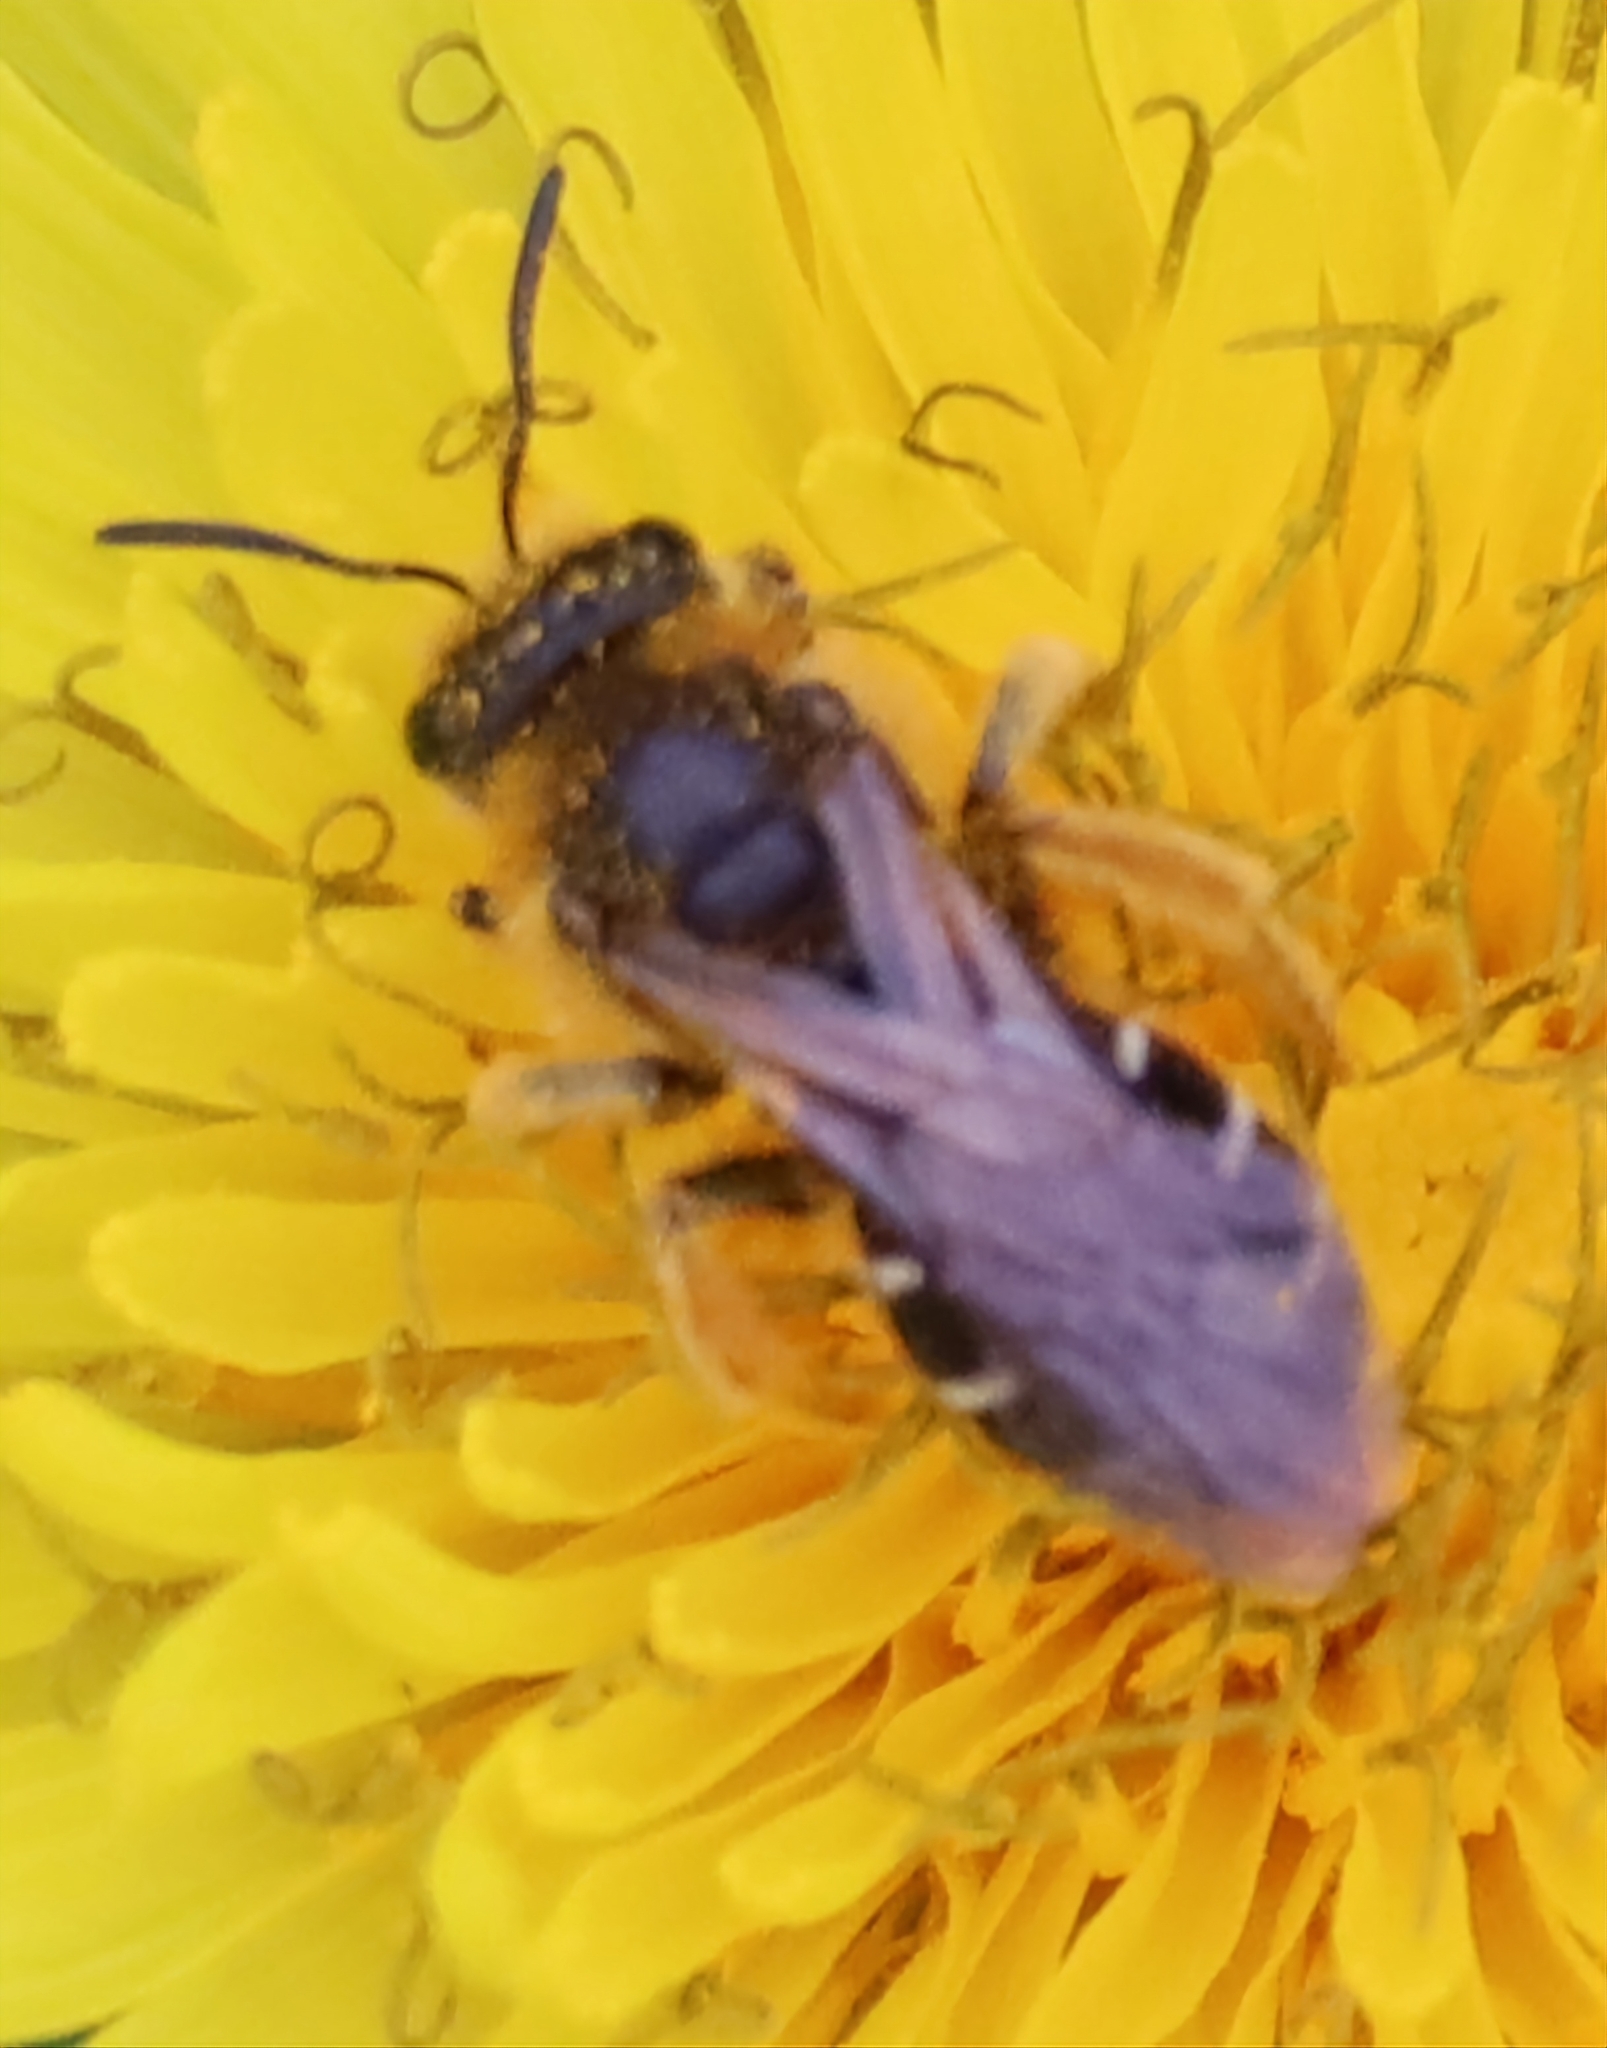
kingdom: Animalia
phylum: Arthropoda
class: Insecta
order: Hymenoptera
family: Halictidae
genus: Halictus
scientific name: Halictus rubicundus
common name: Orange-legged furrow bee
